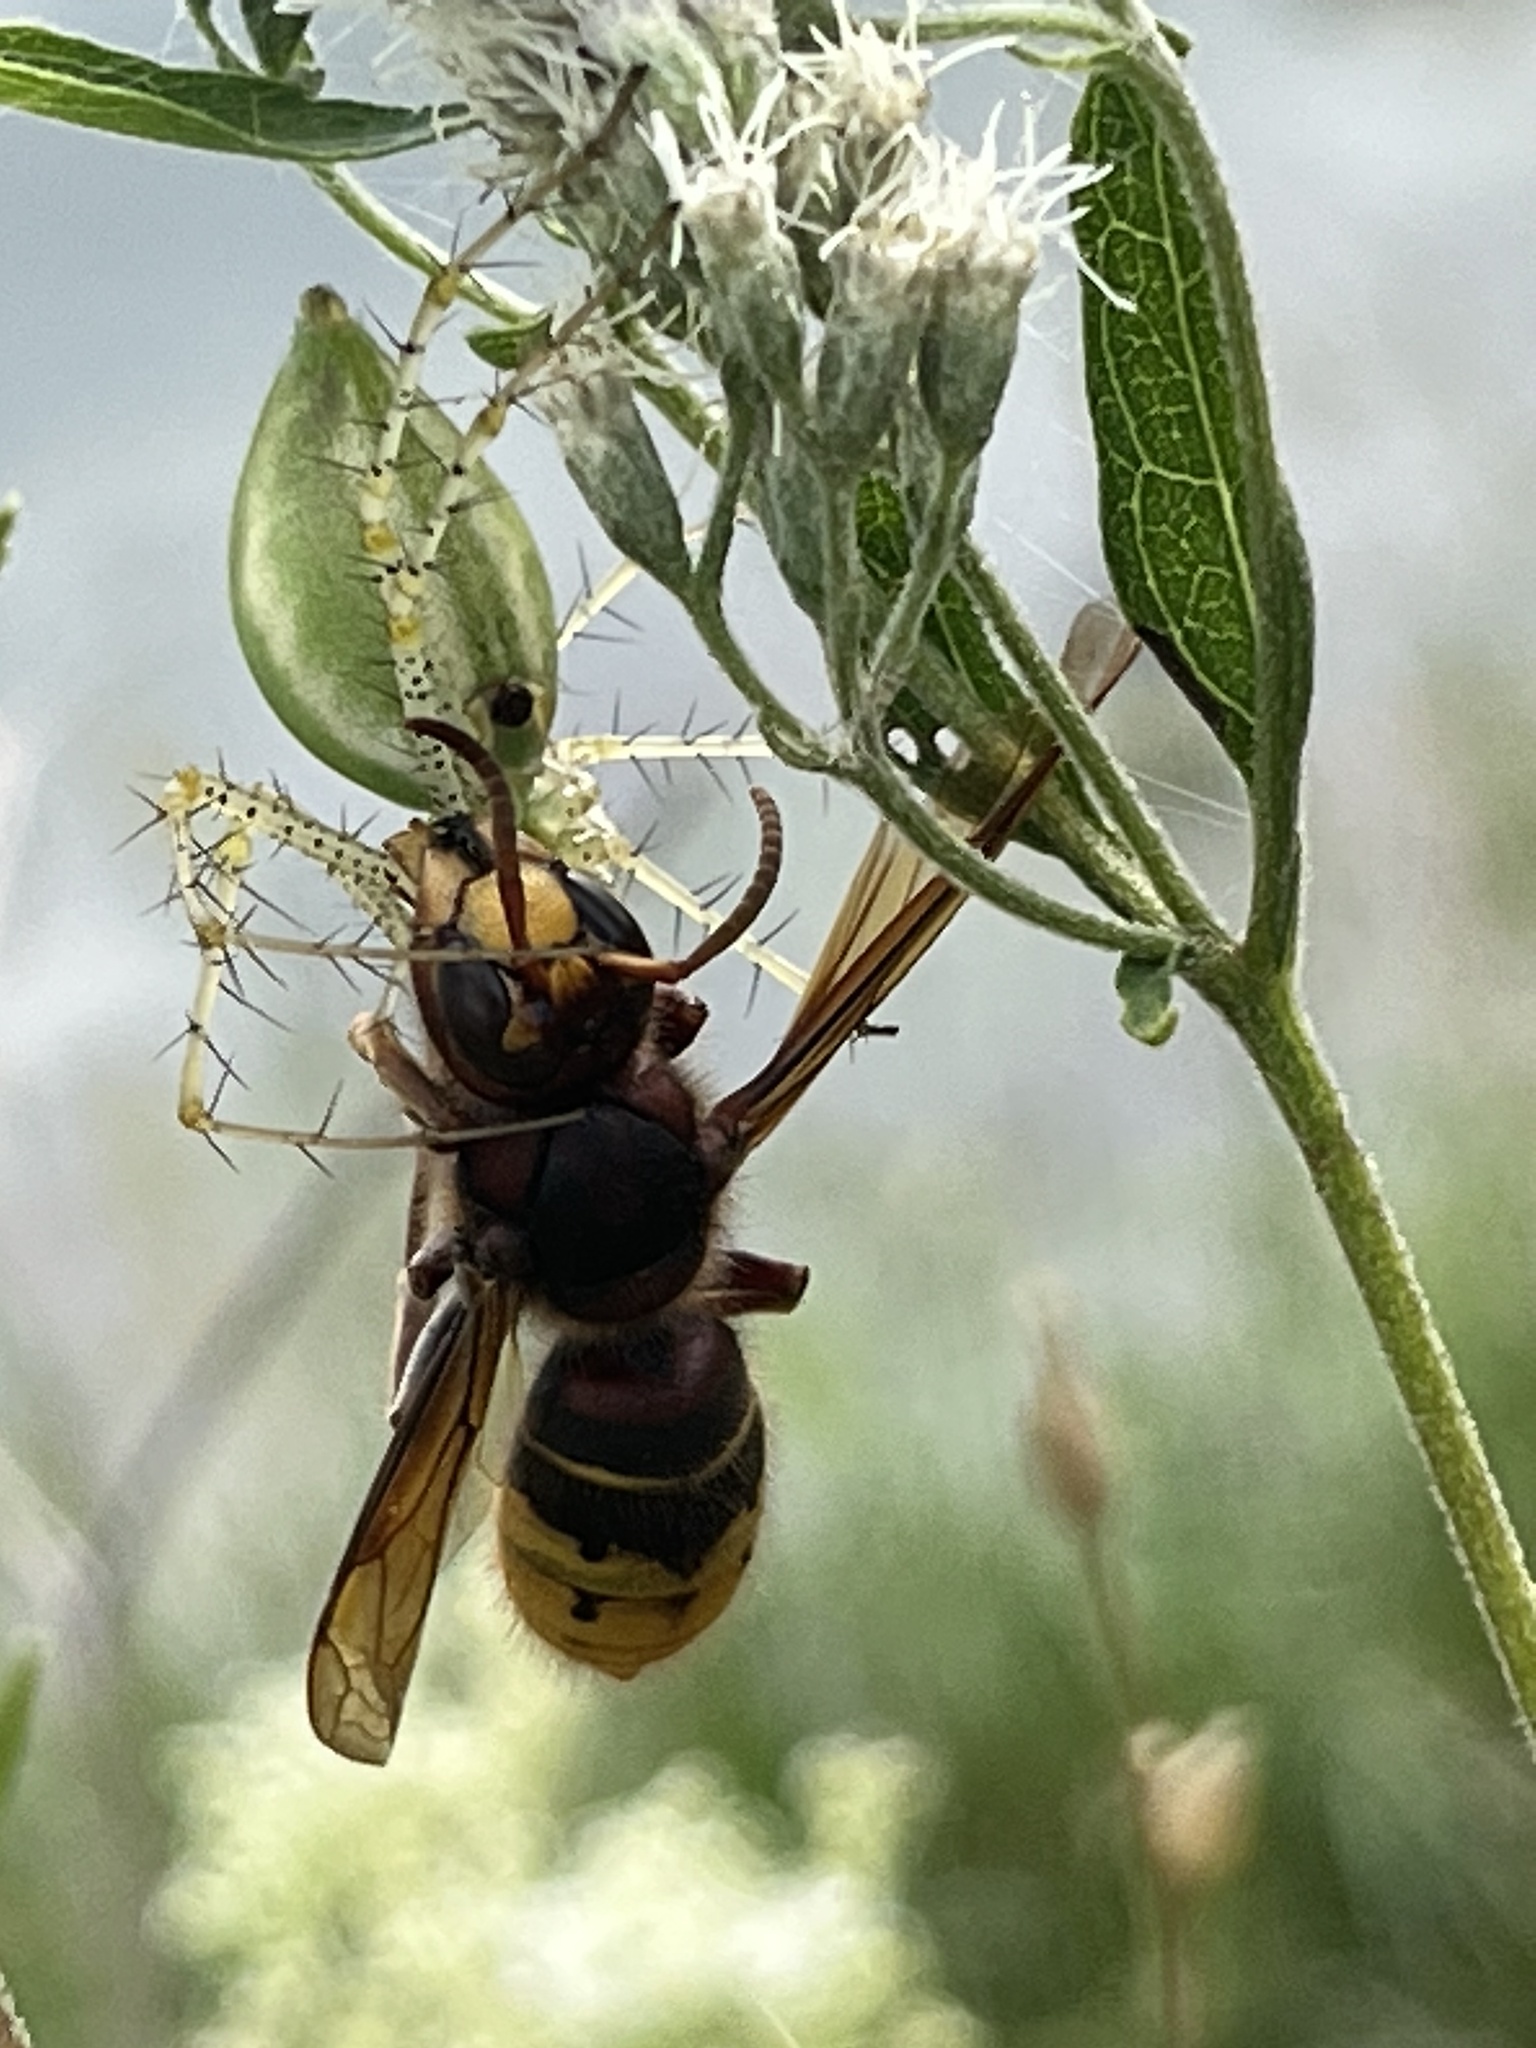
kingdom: Animalia
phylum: Arthropoda
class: Insecta
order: Hymenoptera
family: Vespidae
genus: Vespa
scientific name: Vespa crabro
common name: Hornet
